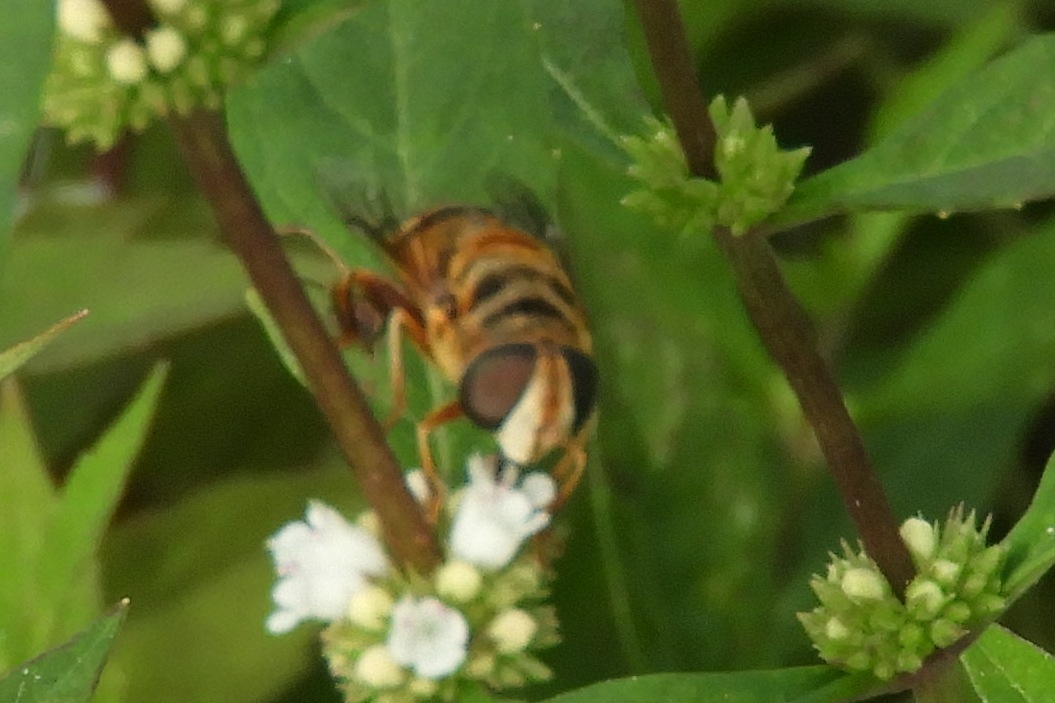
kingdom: Animalia
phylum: Arthropoda
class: Insecta
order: Diptera
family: Syrphidae
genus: Palpada
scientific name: Palpada vinetorum
